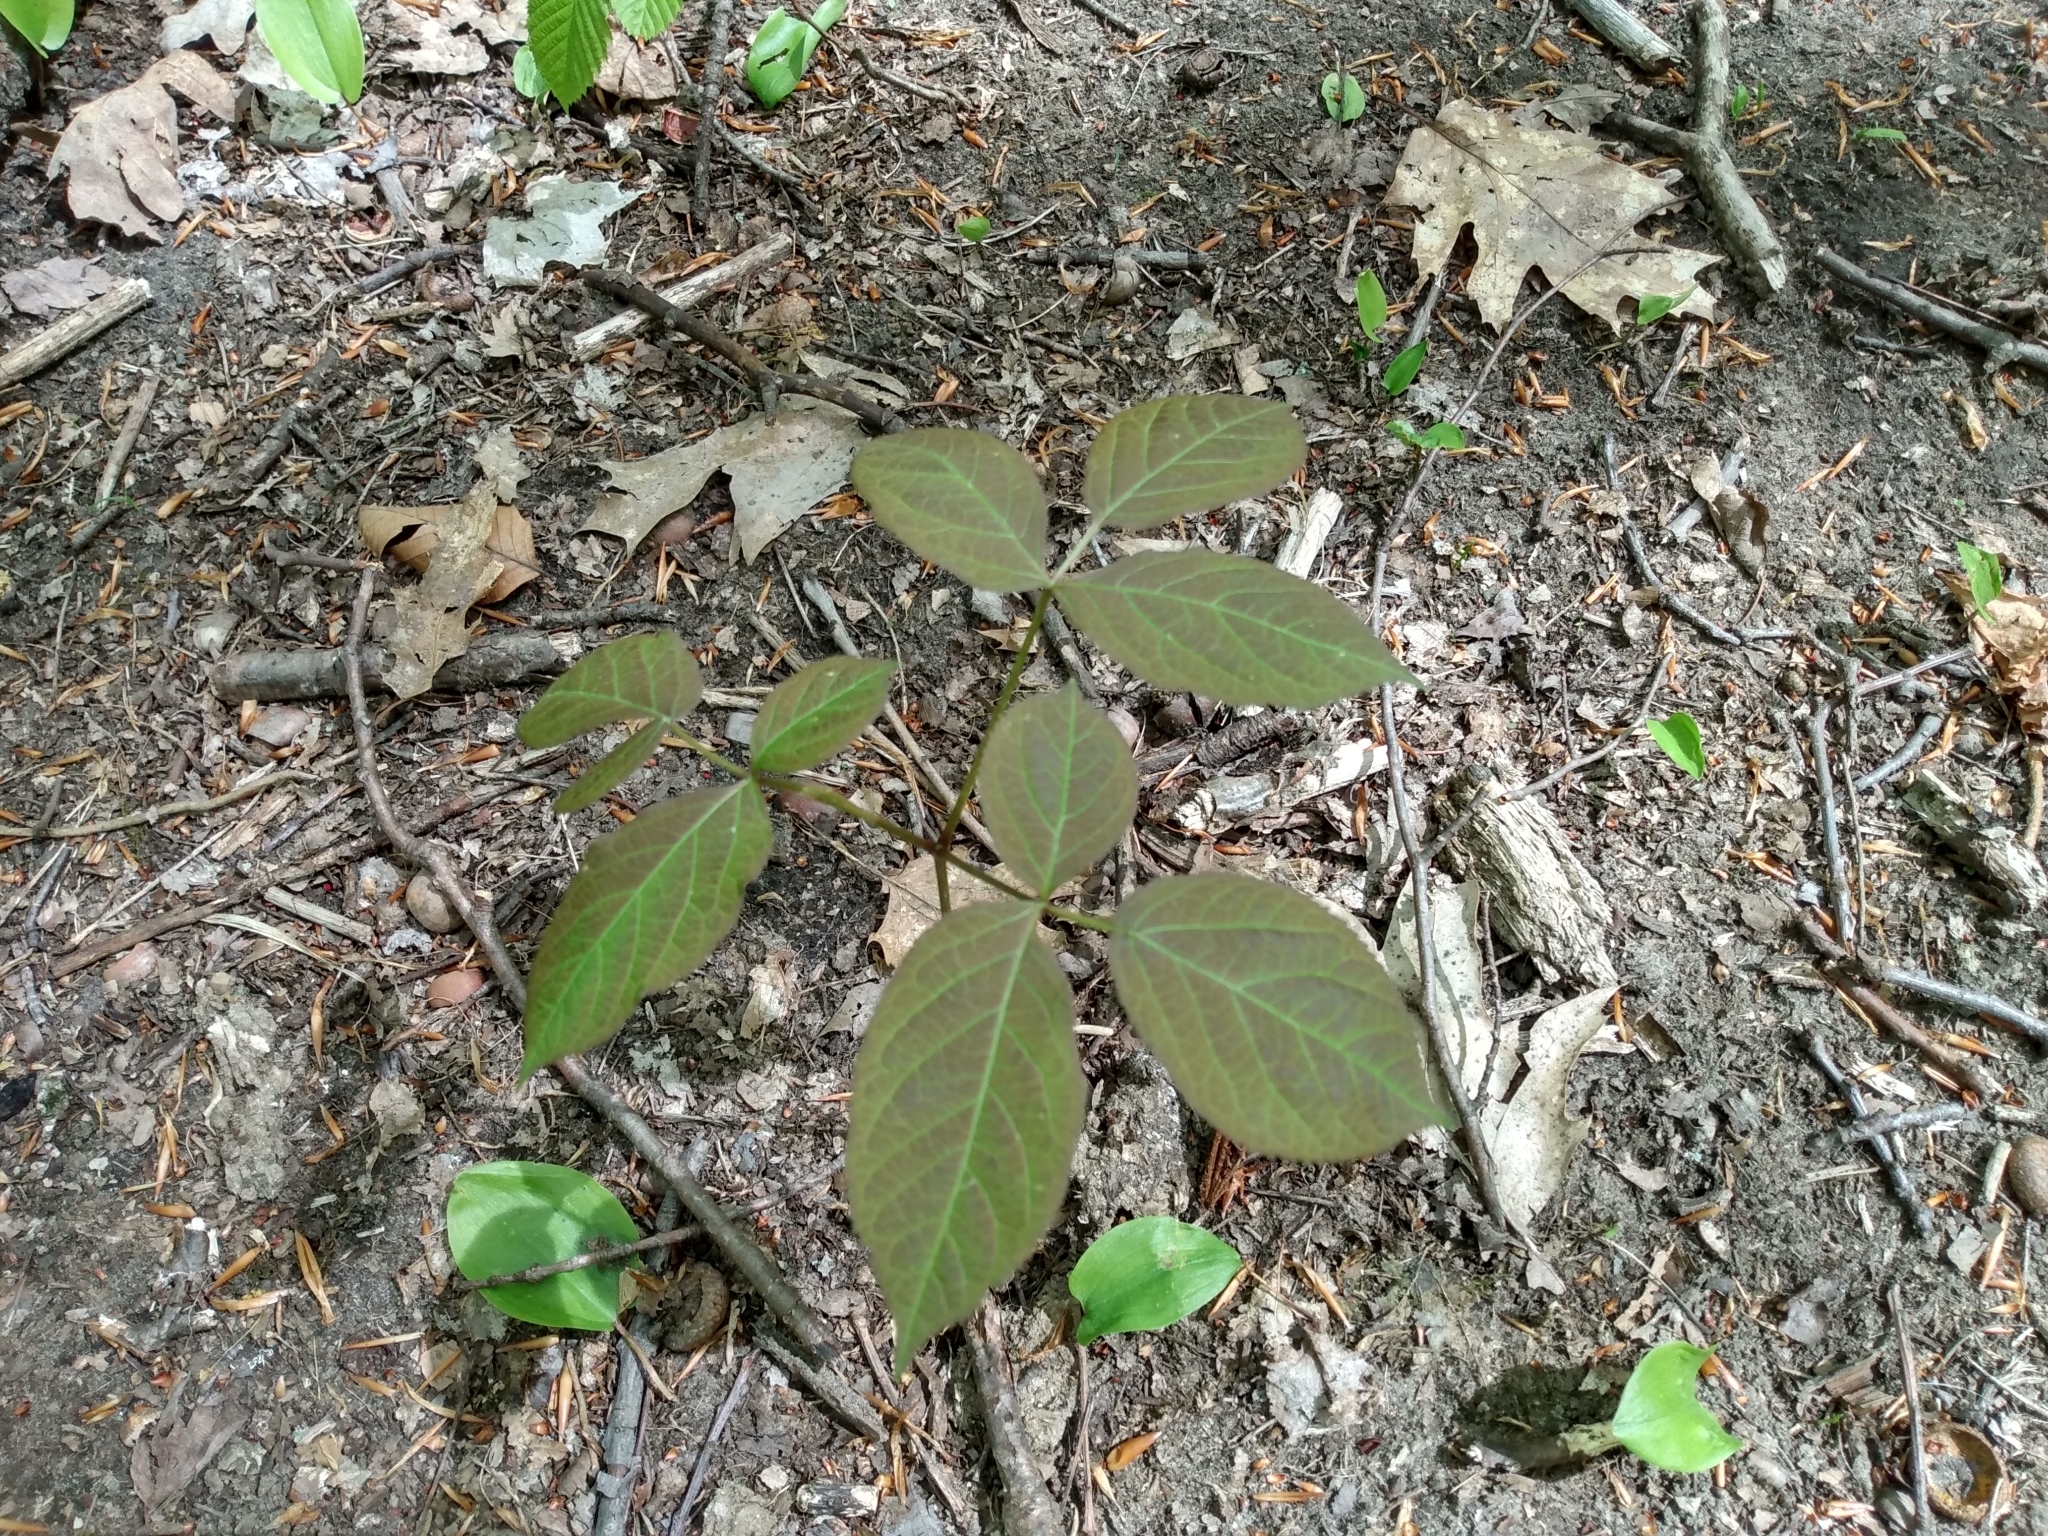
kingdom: Plantae
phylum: Tracheophyta
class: Magnoliopsida
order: Apiales
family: Araliaceae
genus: Aralia
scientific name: Aralia nudicaulis
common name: Wild sarsaparilla
